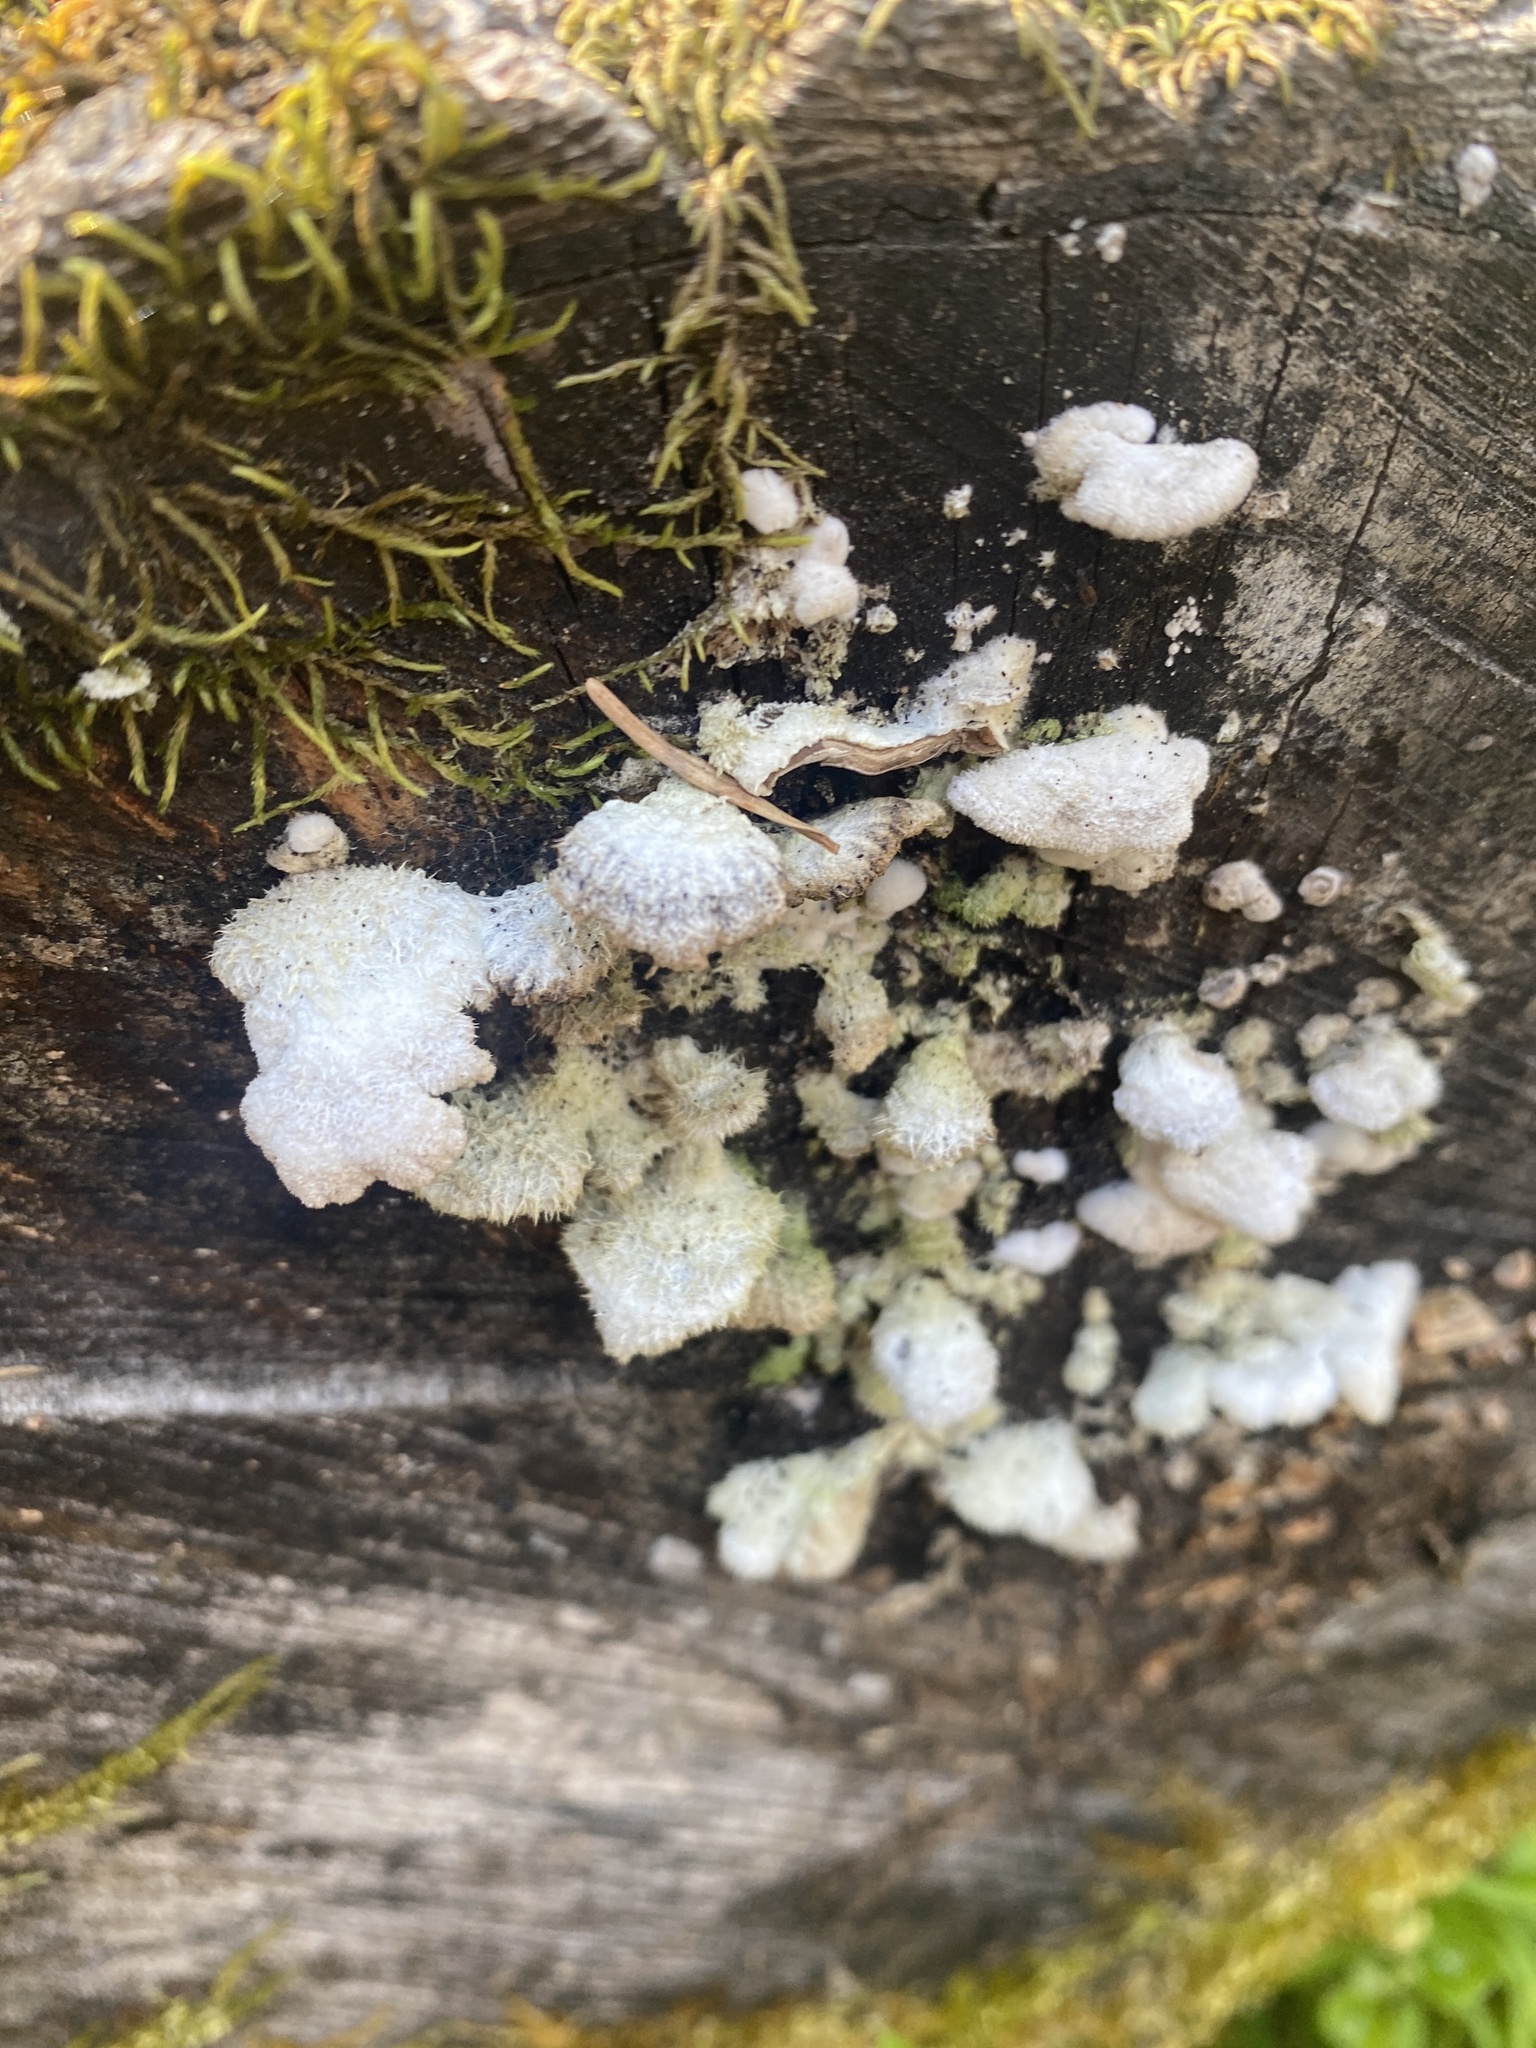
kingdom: Fungi
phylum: Basidiomycota
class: Agaricomycetes
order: Agaricales
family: Schizophyllaceae
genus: Schizophyllum
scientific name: Schizophyllum commune
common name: Common porecrust
